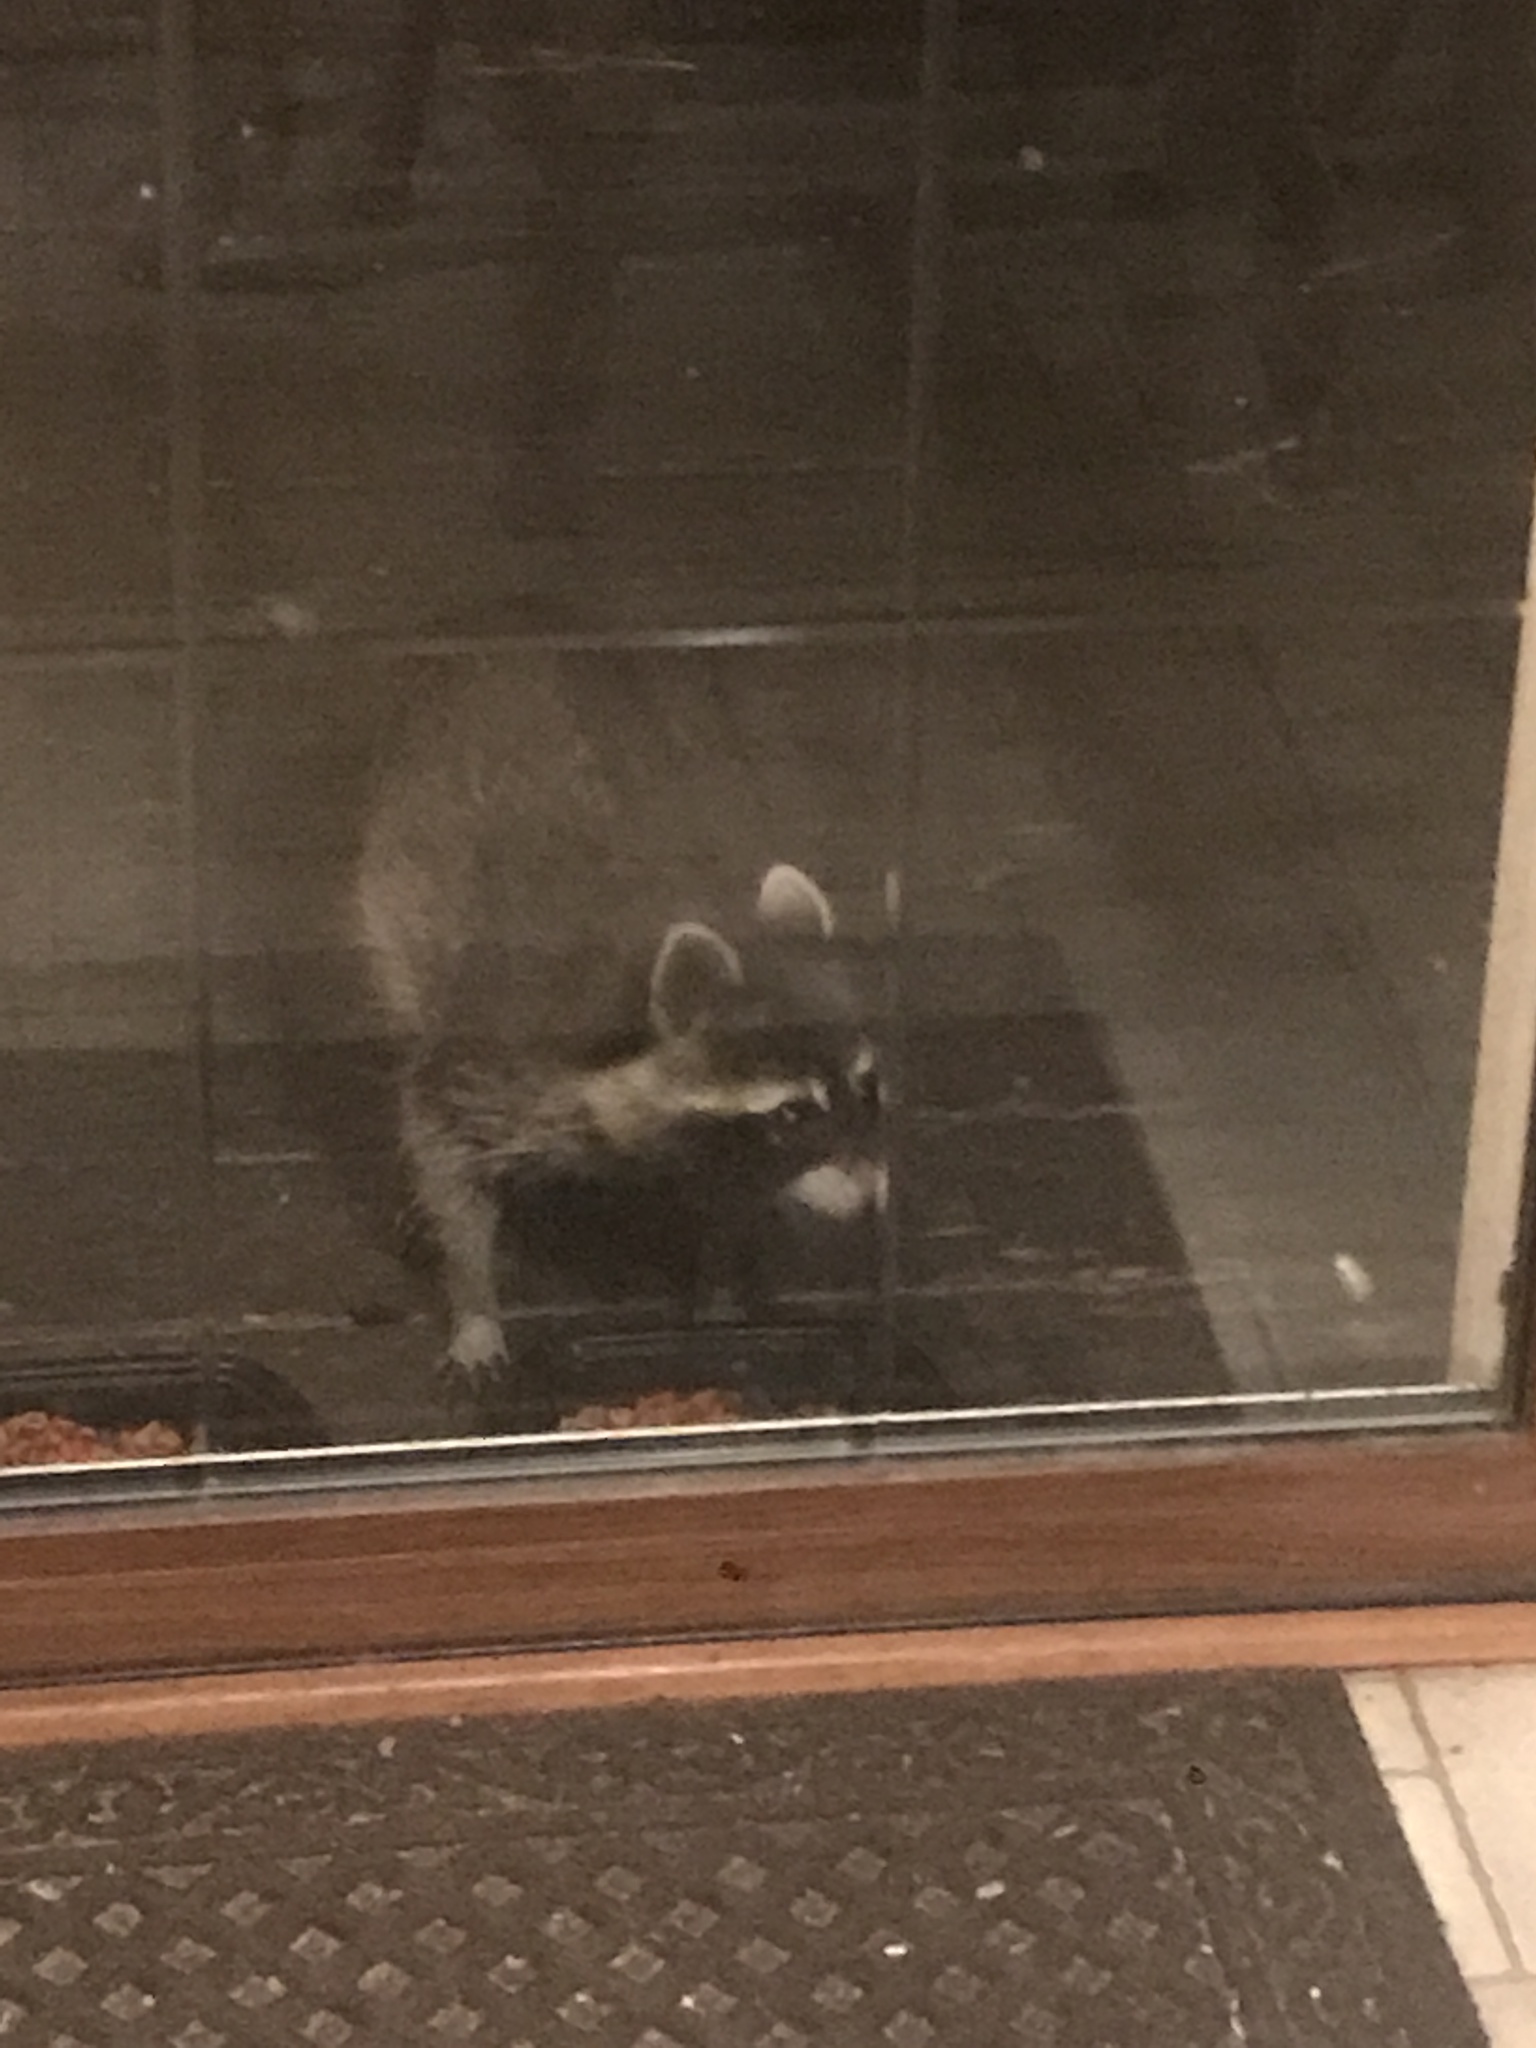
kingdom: Animalia
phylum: Chordata
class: Mammalia
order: Carnivora
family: Procyonidae
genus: Procyon
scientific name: Procyon lotor
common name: Raccoon
